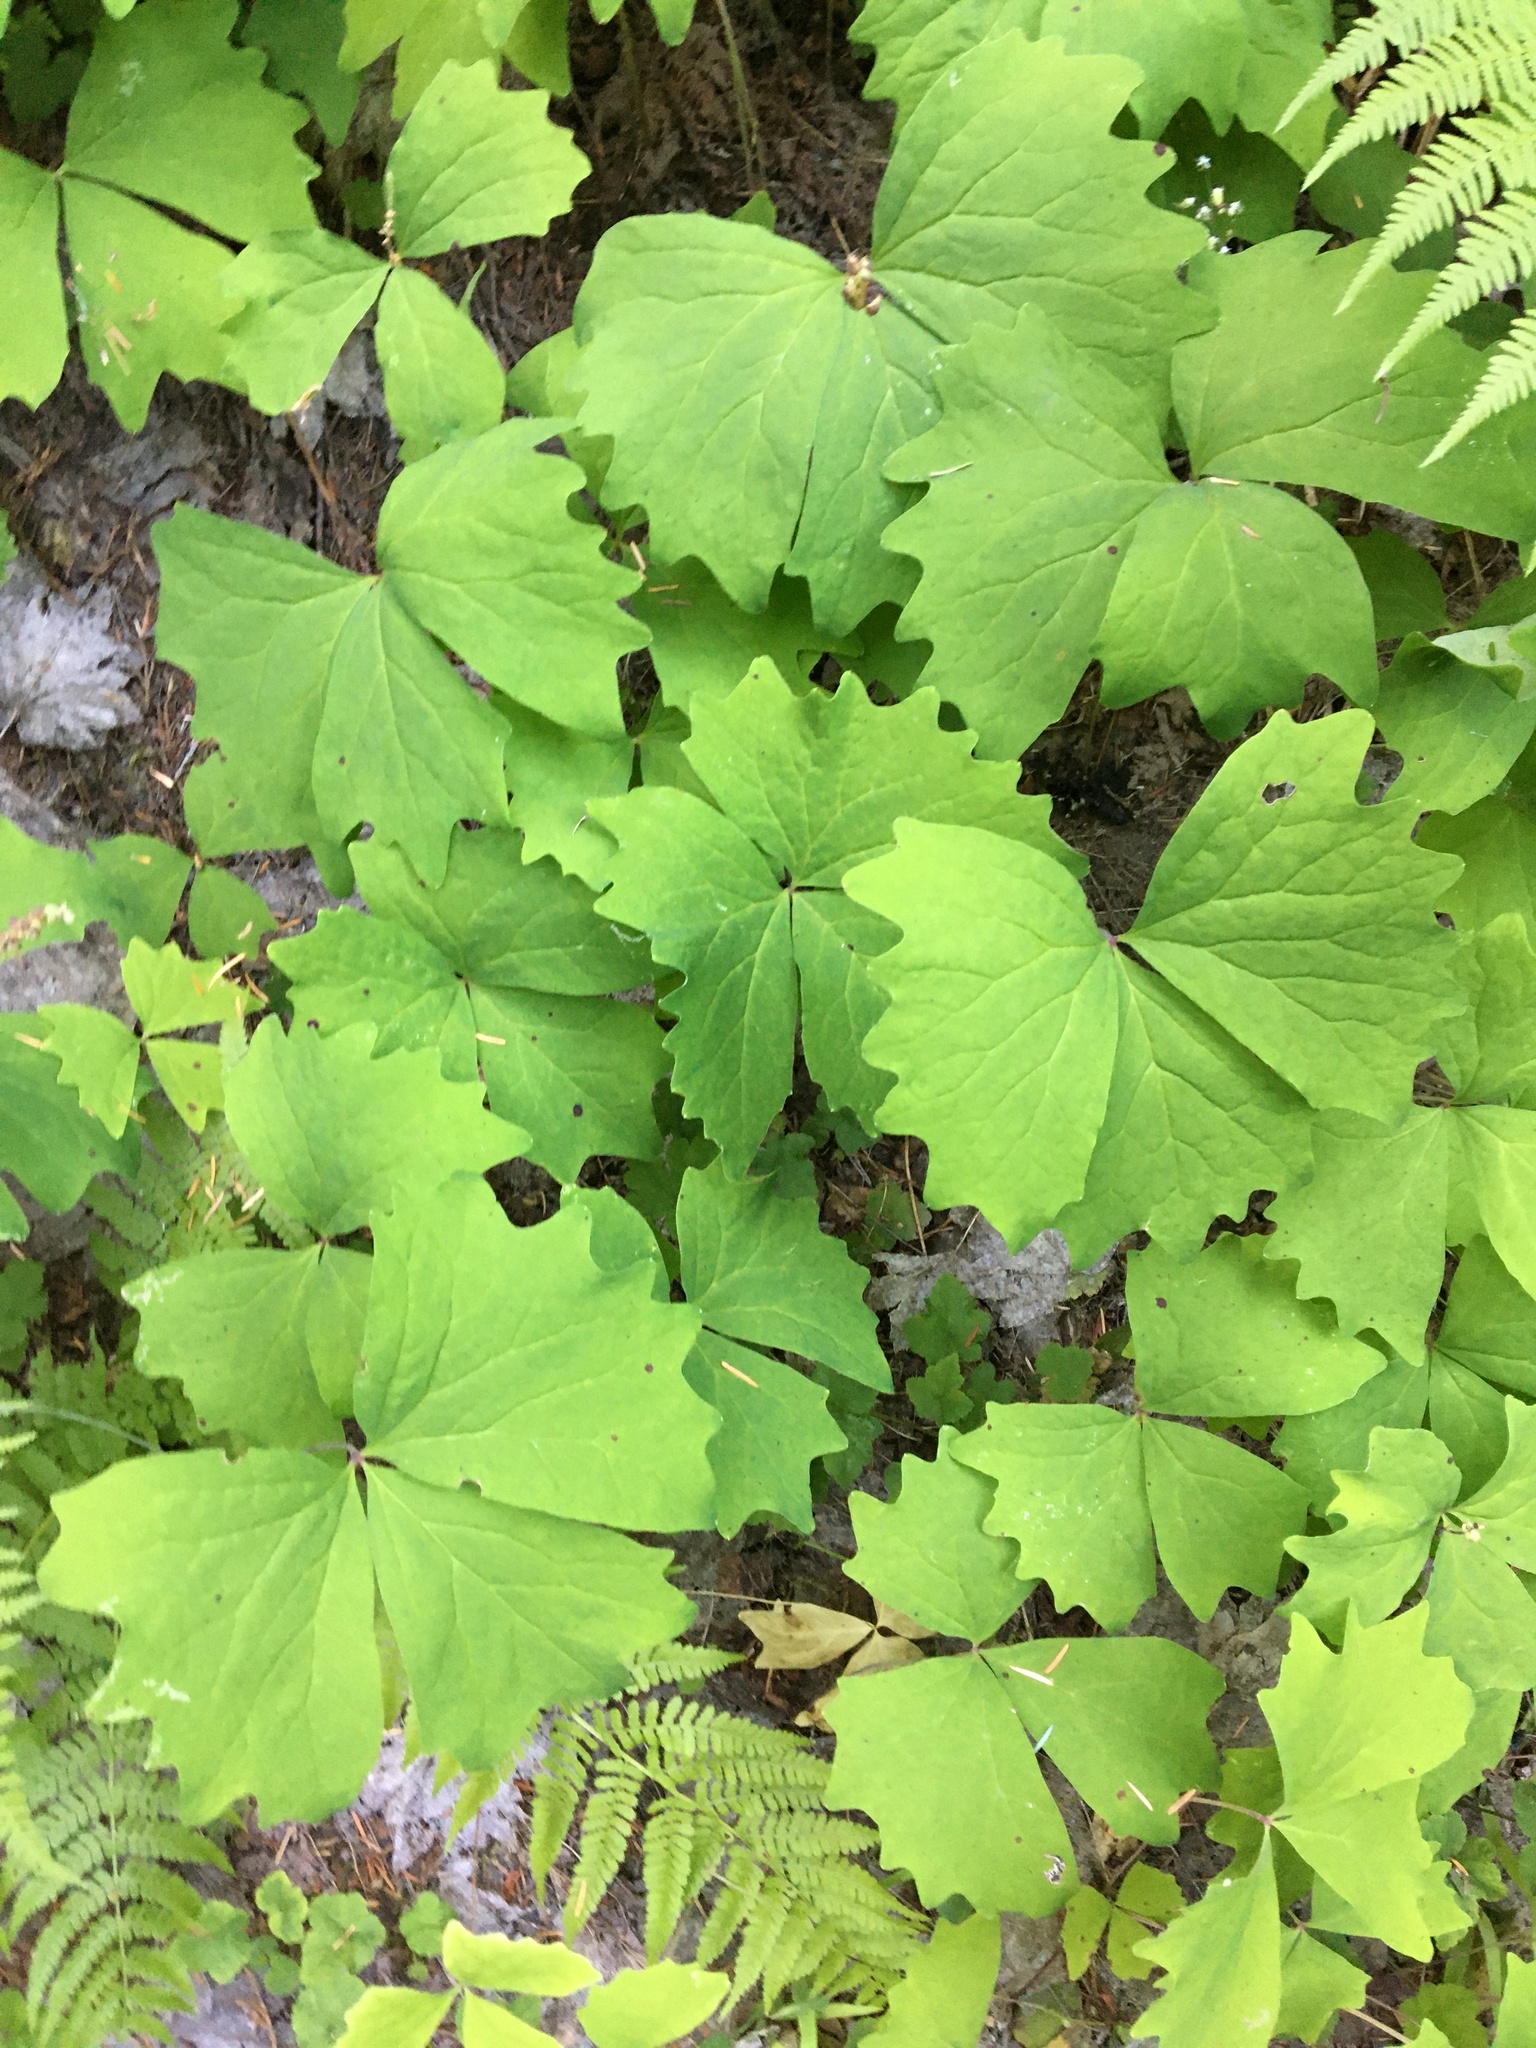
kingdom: Plantae
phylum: Tracheophyta
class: Magnoliopsida
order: Ranunculales
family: Berberidaceae
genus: Achlys
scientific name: Achlys triphylla
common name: Vanilla-leaf
